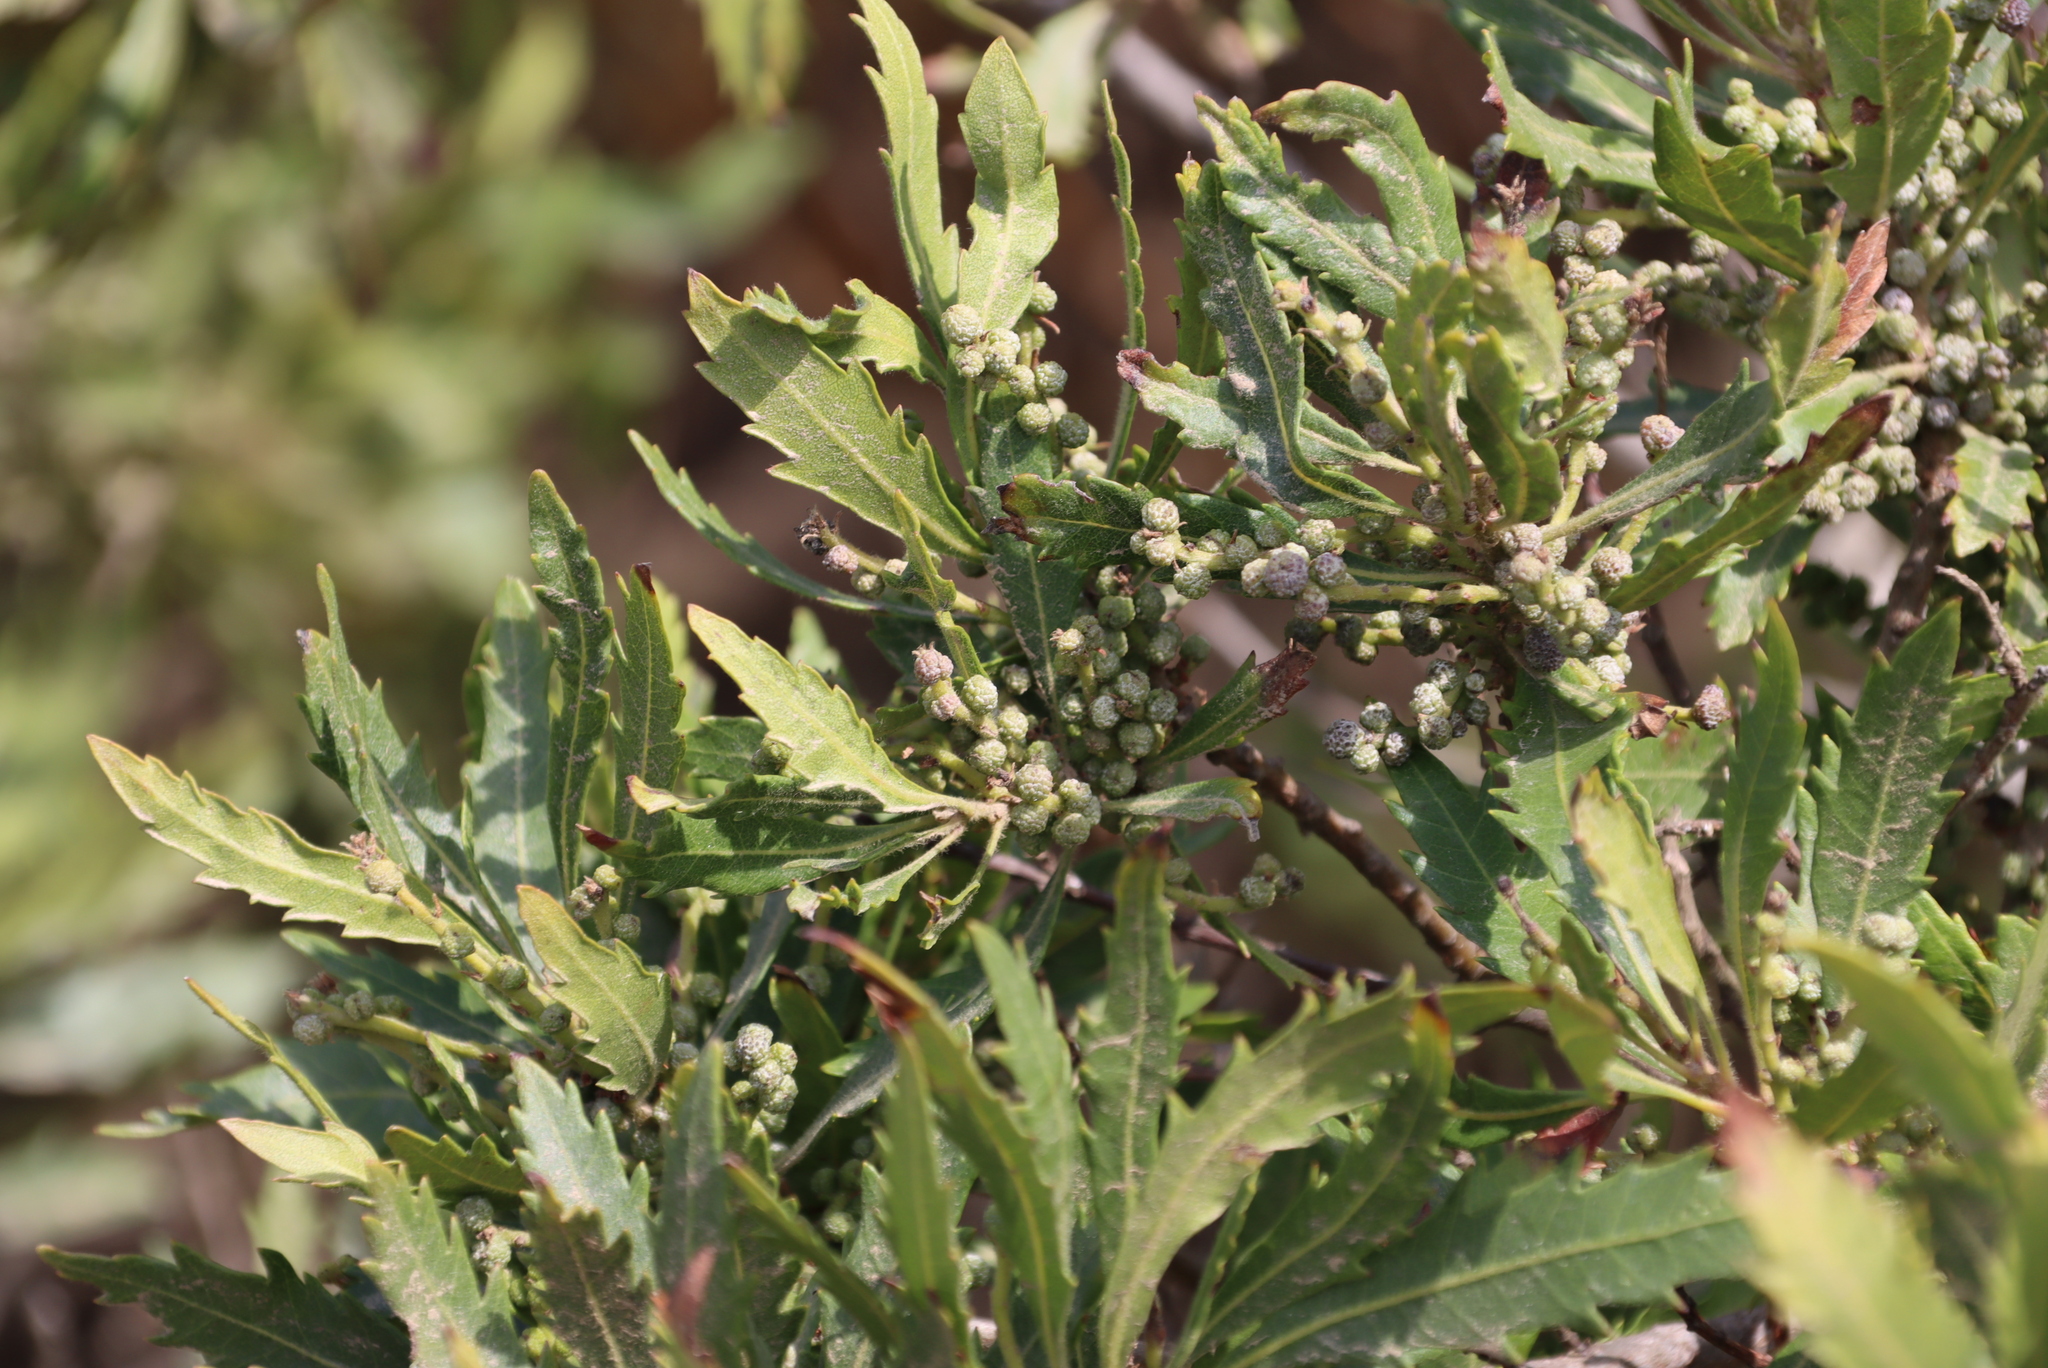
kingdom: Plantae
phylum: Tracheophyta
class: Magnoliopsida
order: Fagales
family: Myricaceae
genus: Morella
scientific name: Morella serrata
